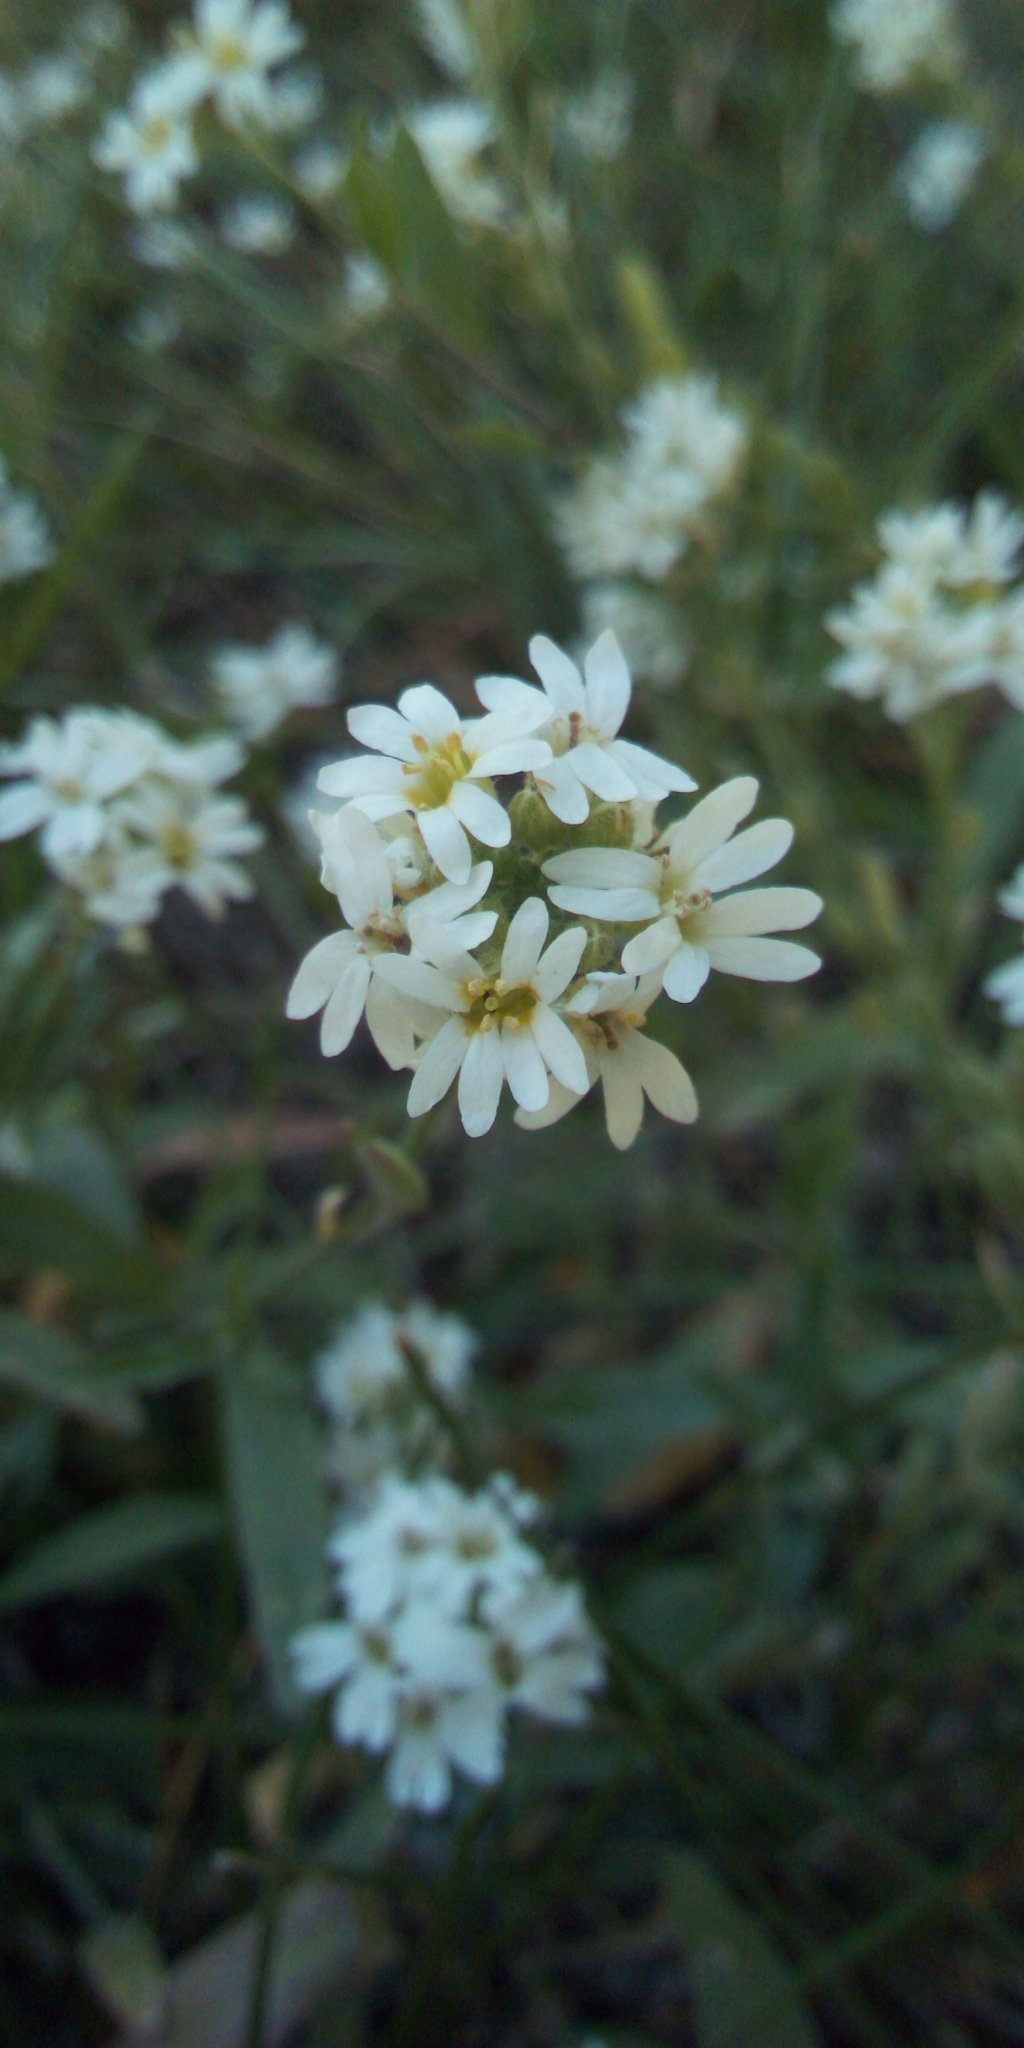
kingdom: Plantae
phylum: Tracheophyta
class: Magnoliopsida
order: Brassicales
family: Brassicaceae
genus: Berteroa
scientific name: Berteroa incana
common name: Hoary alison
